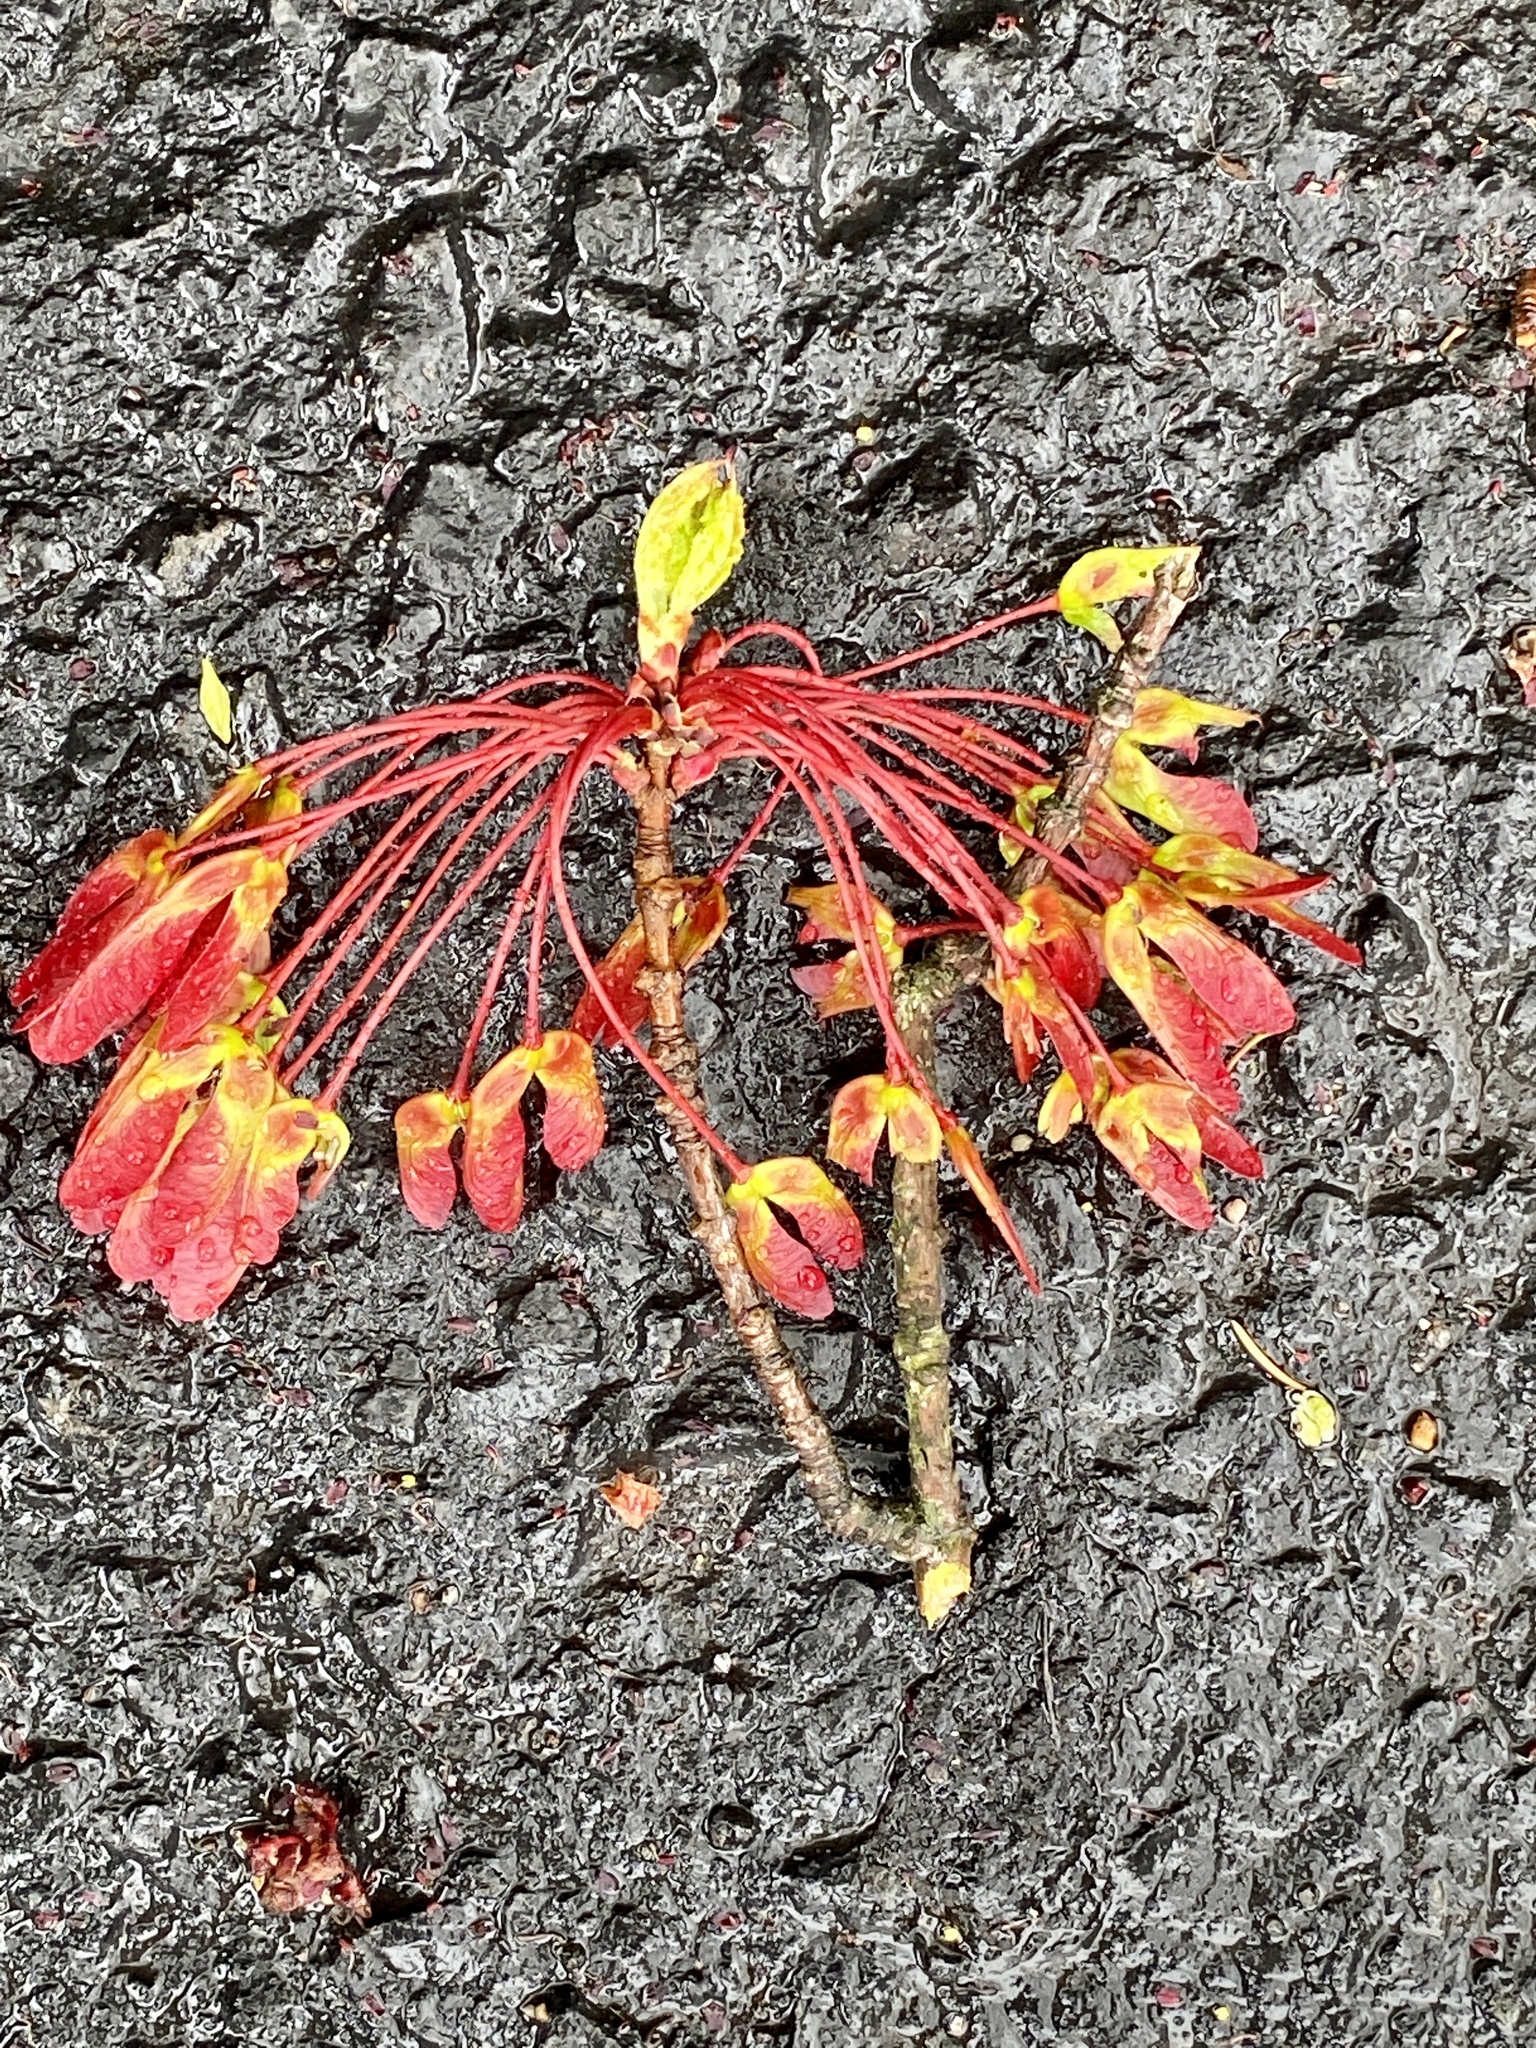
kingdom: Plantae
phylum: Tracheophyta
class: Magnoliopsida
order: Sapindales
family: Sapindaceae
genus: Acer
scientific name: Acer rubrum
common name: Red maple
